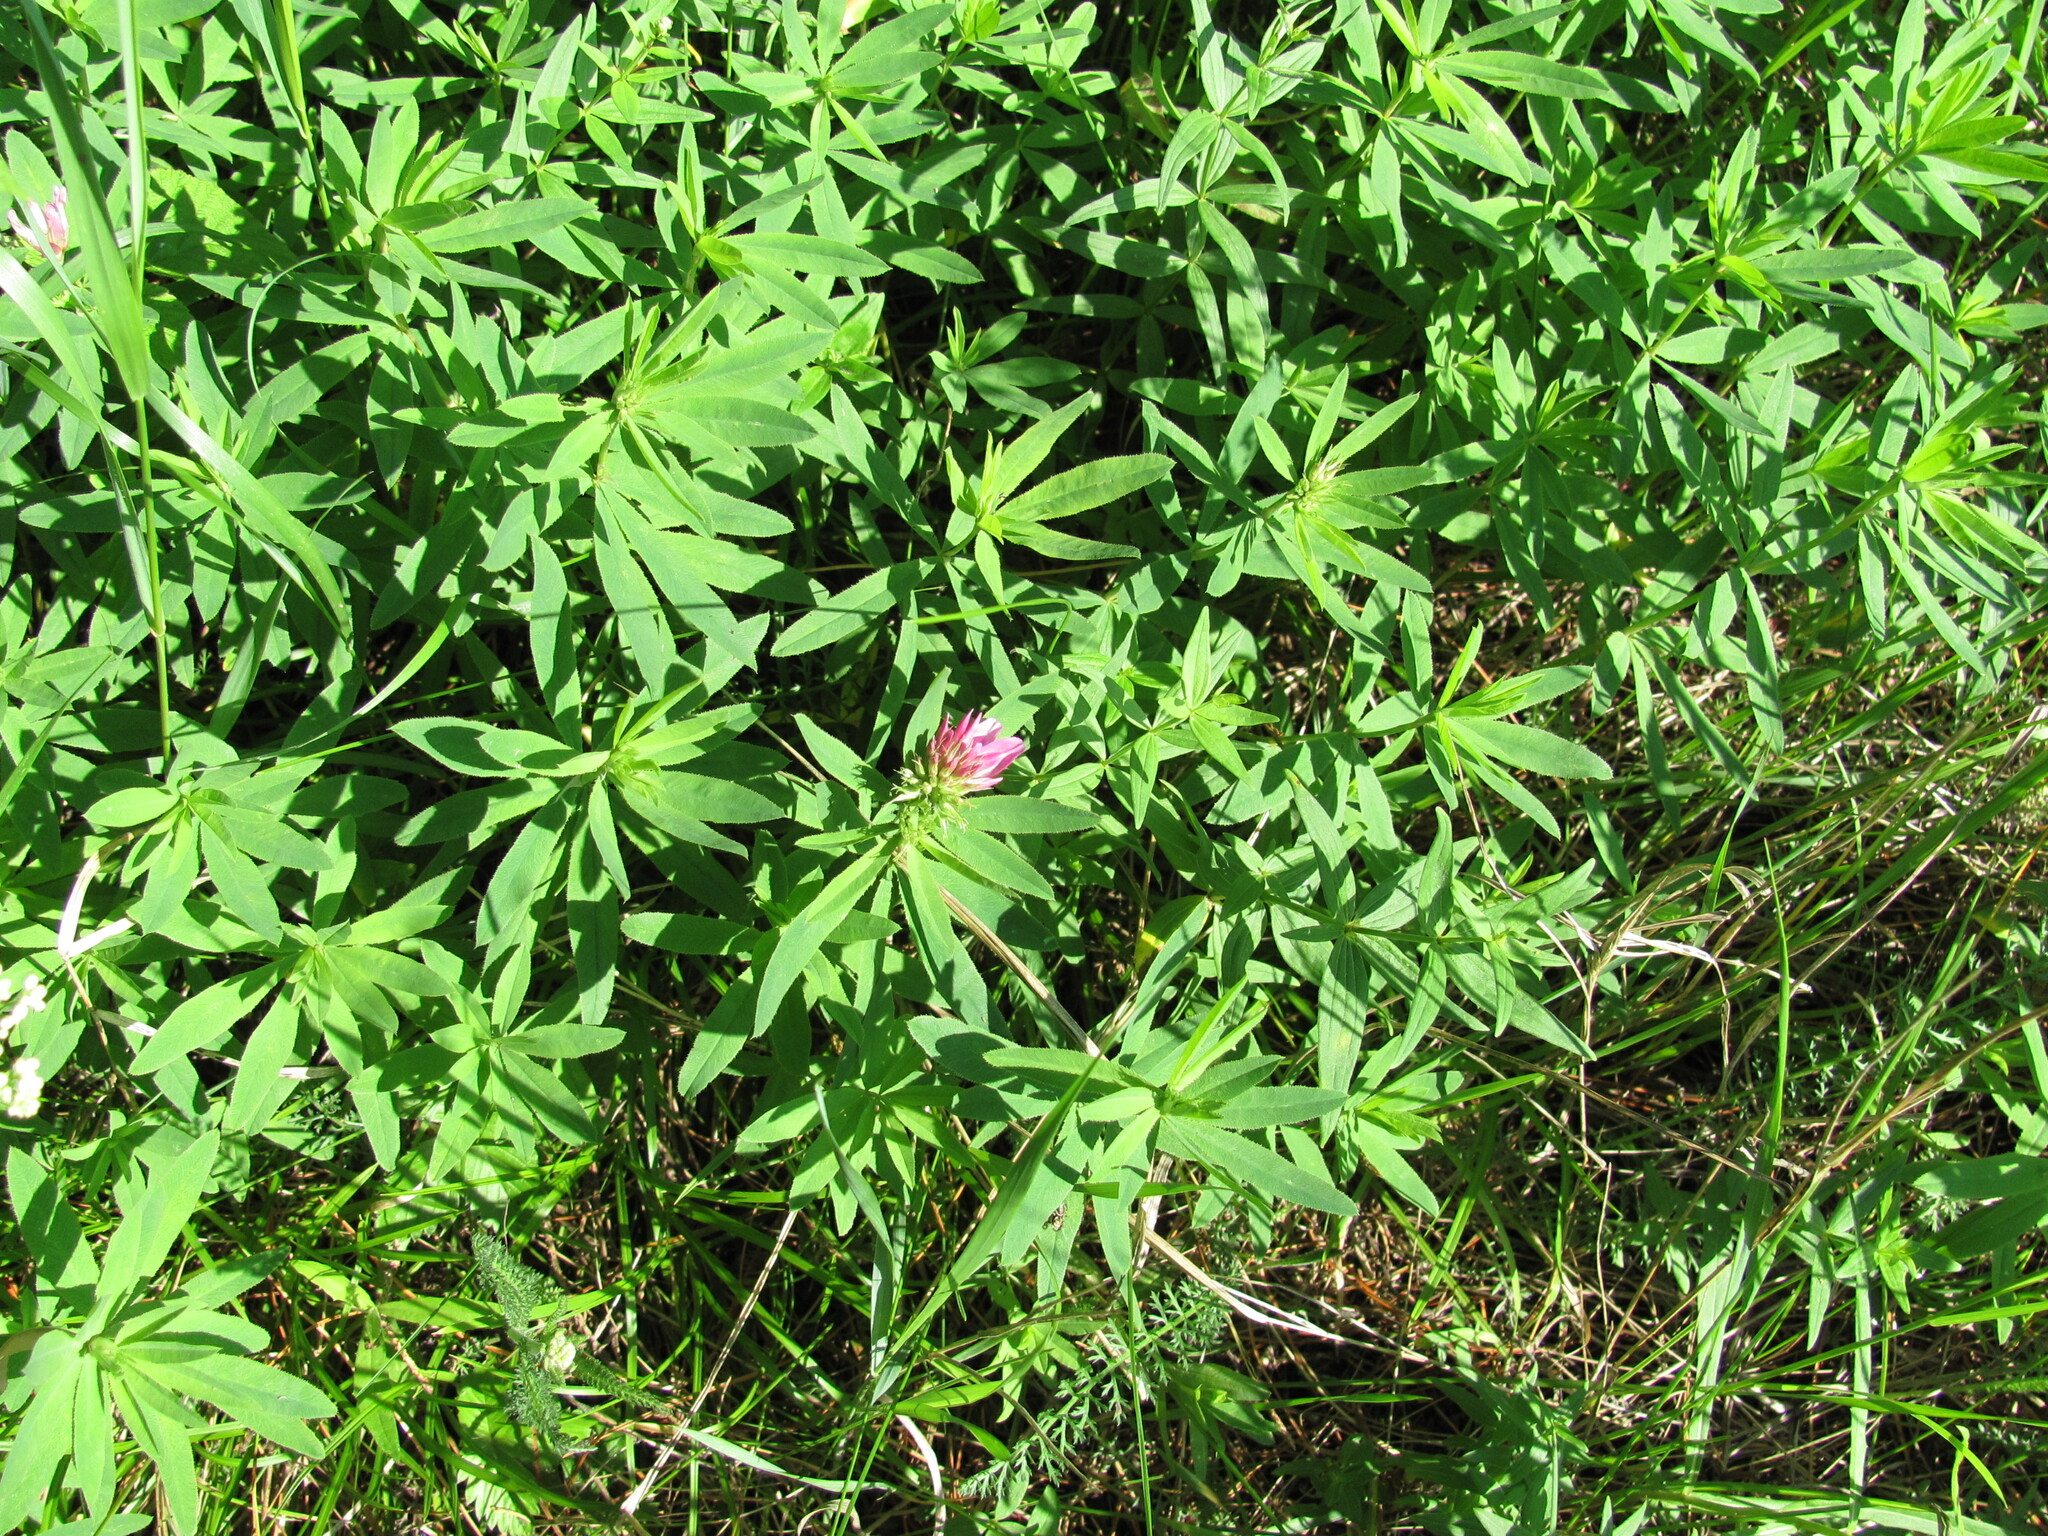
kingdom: Plantae
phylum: Tracheophyta
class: Magnoliopsida
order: Fabales
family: Fabaceae
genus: Trifolium
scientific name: Trifolium lupinaster
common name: Lupine clover
